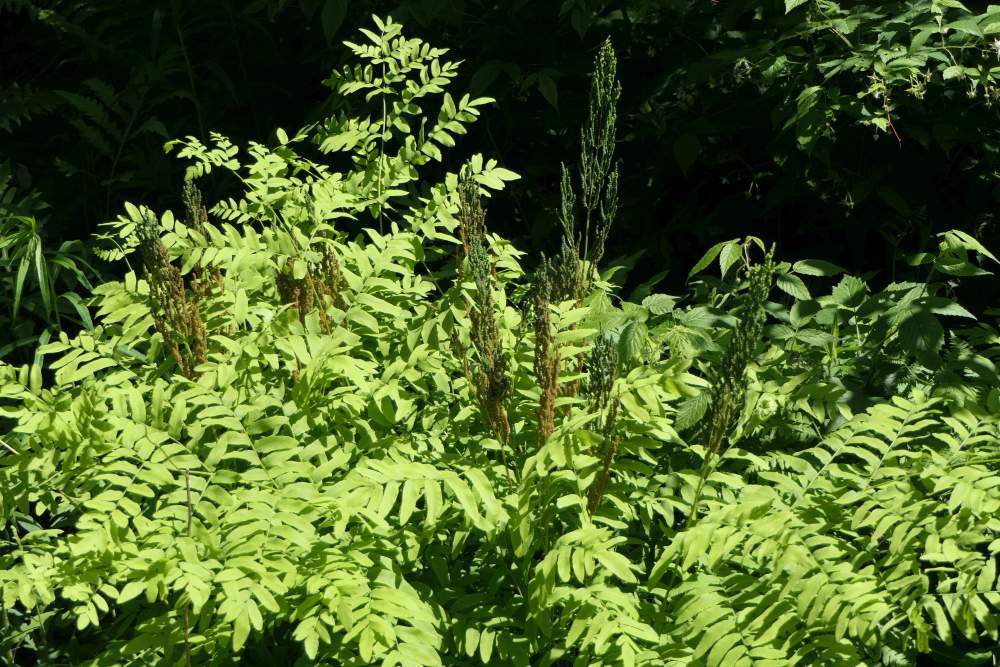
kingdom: Plantae
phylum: Tracheophyta
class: Polypodiopsida
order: Osmundales
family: Osmundaceae
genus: Osmunda
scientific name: Osmunda spectabilis
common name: American royal fern
